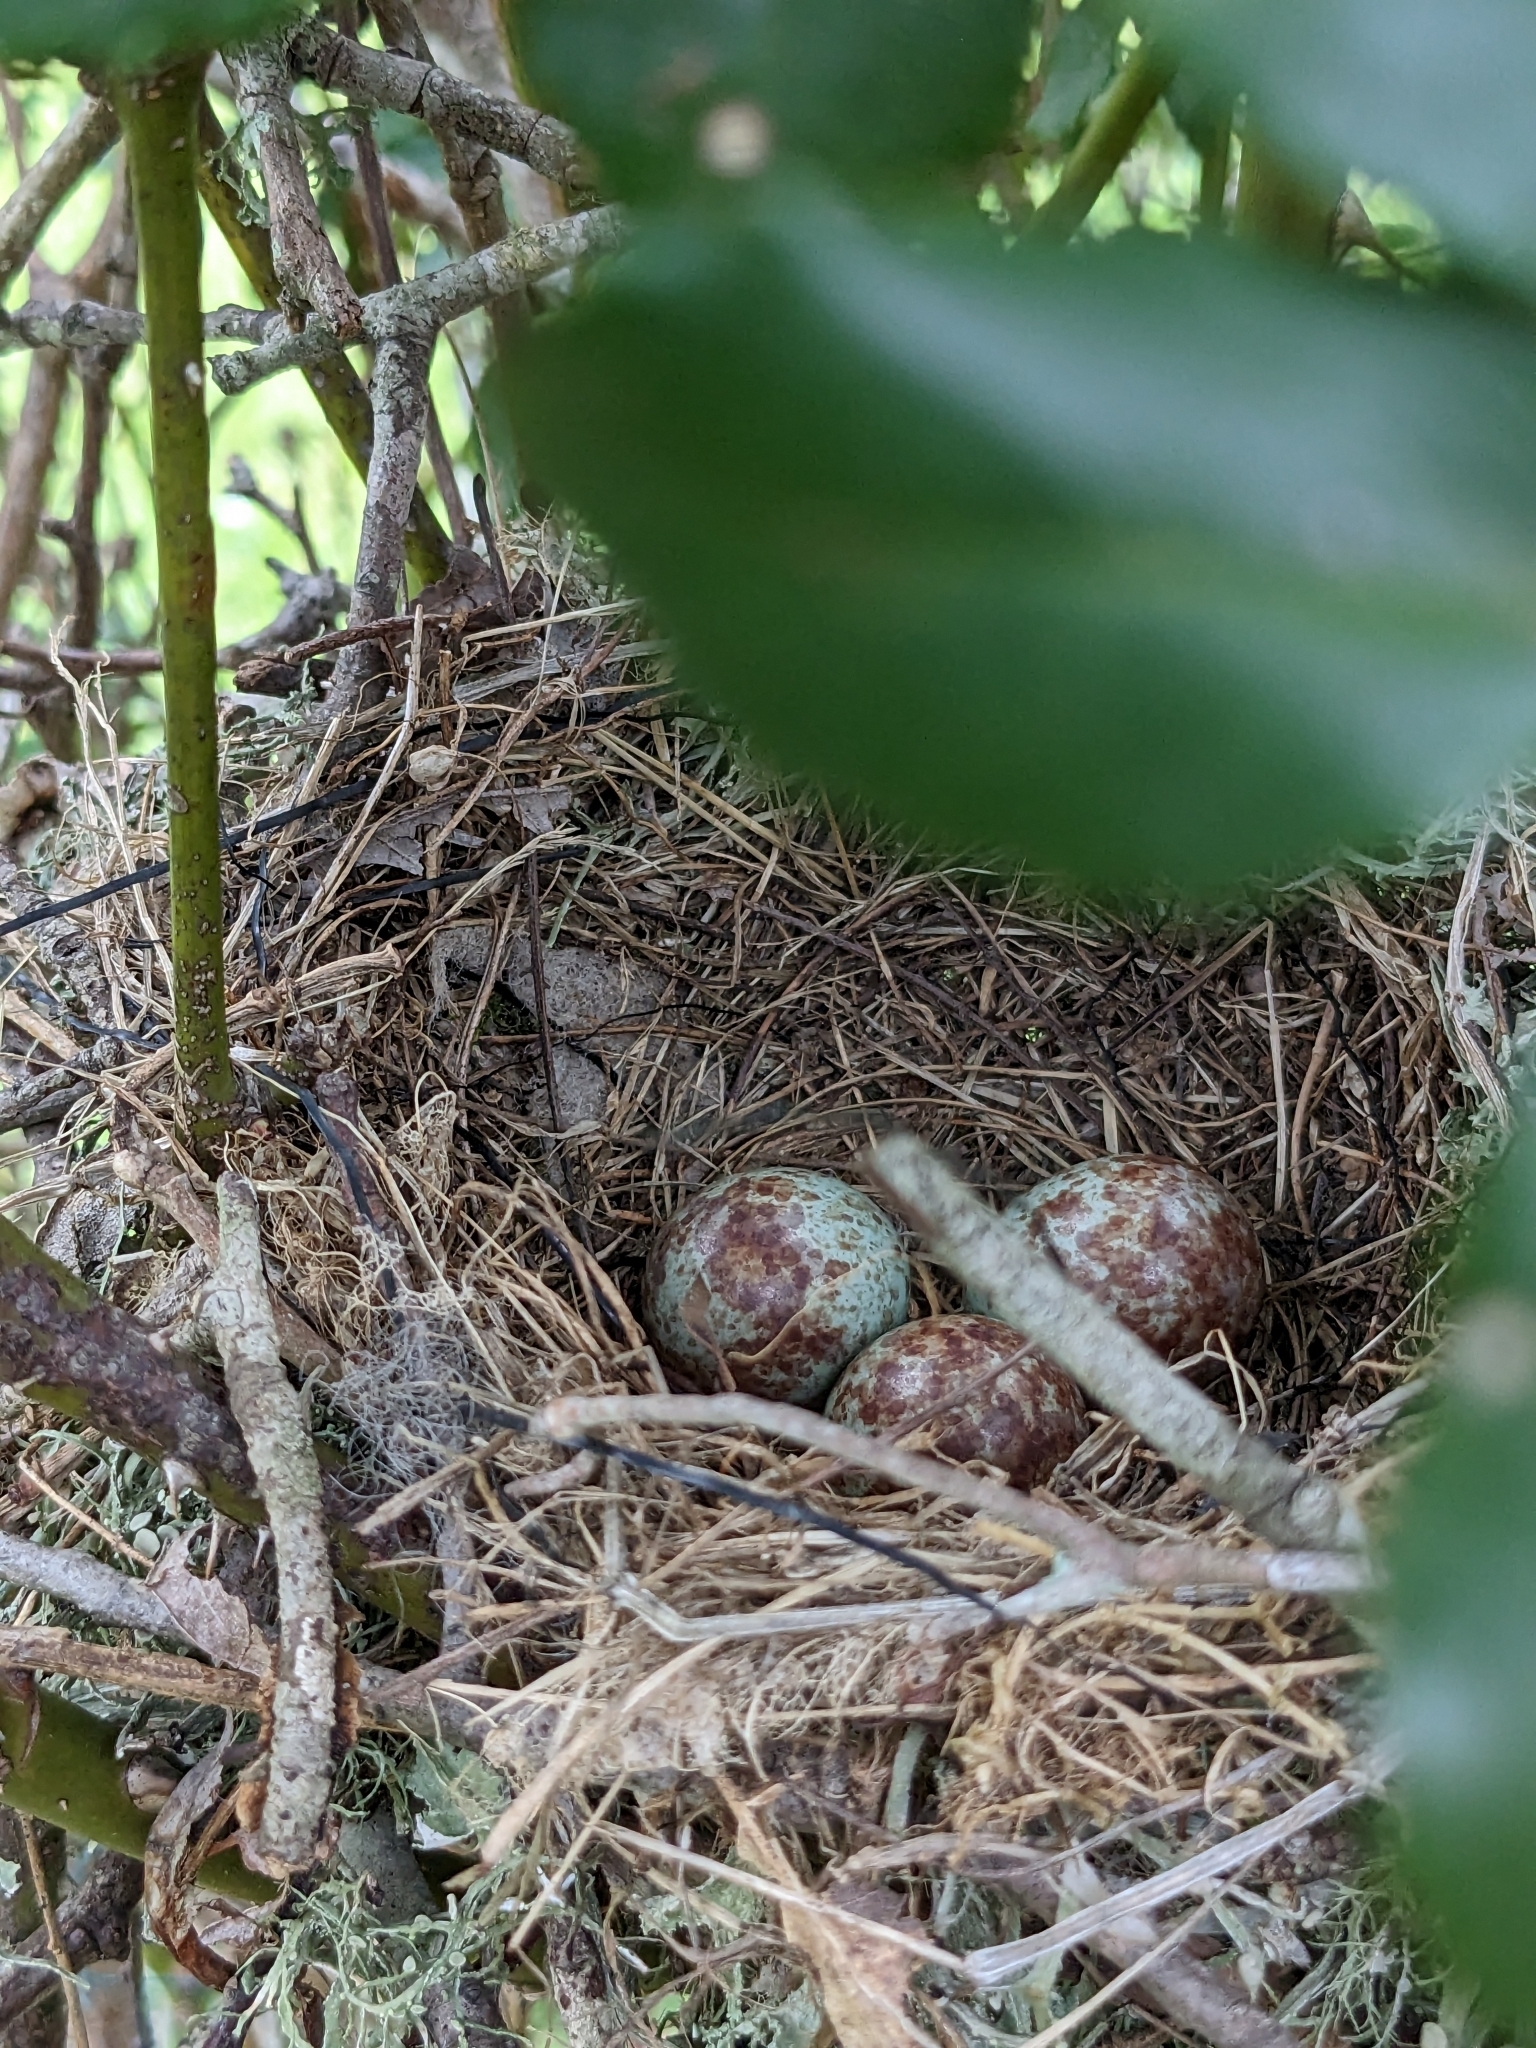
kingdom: Animalia
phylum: Chordata
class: Aves
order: Passeriformes
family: Mimidae
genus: Mimus
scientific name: Mimus polyglottos
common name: Northern mockingbird
